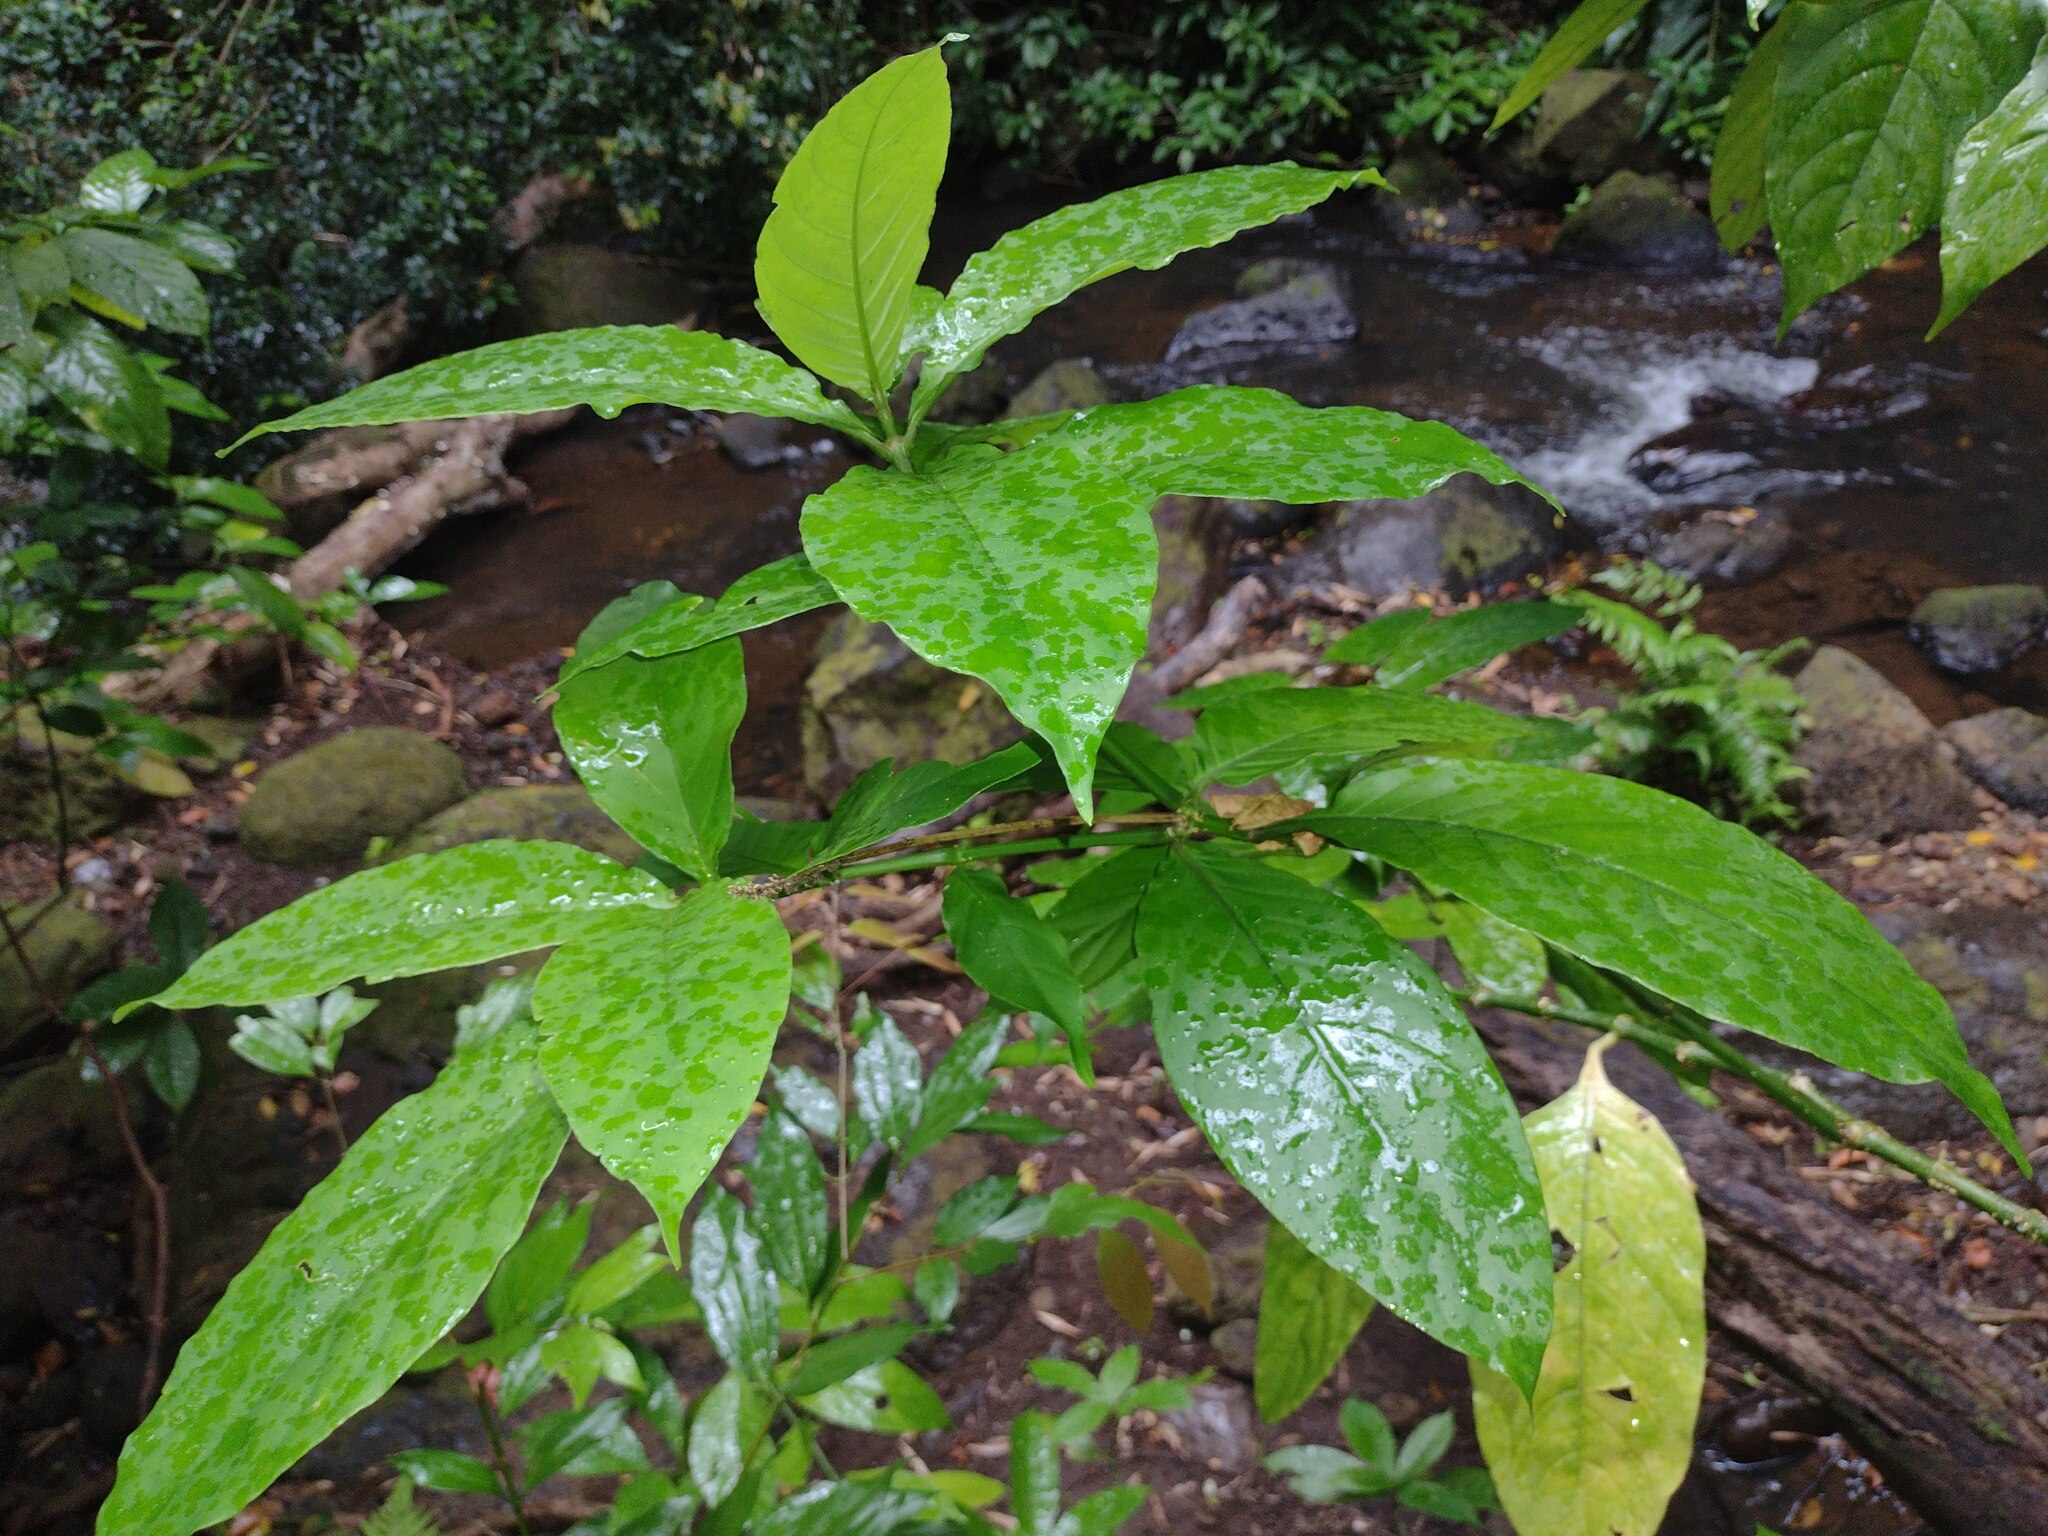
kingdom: Plantae
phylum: Tracheophyta
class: Magnoliopsida
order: Lamiales
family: Acanthaceae
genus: Odontonema
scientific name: Odontonema cuspidatum
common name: Mottled toothedthread
